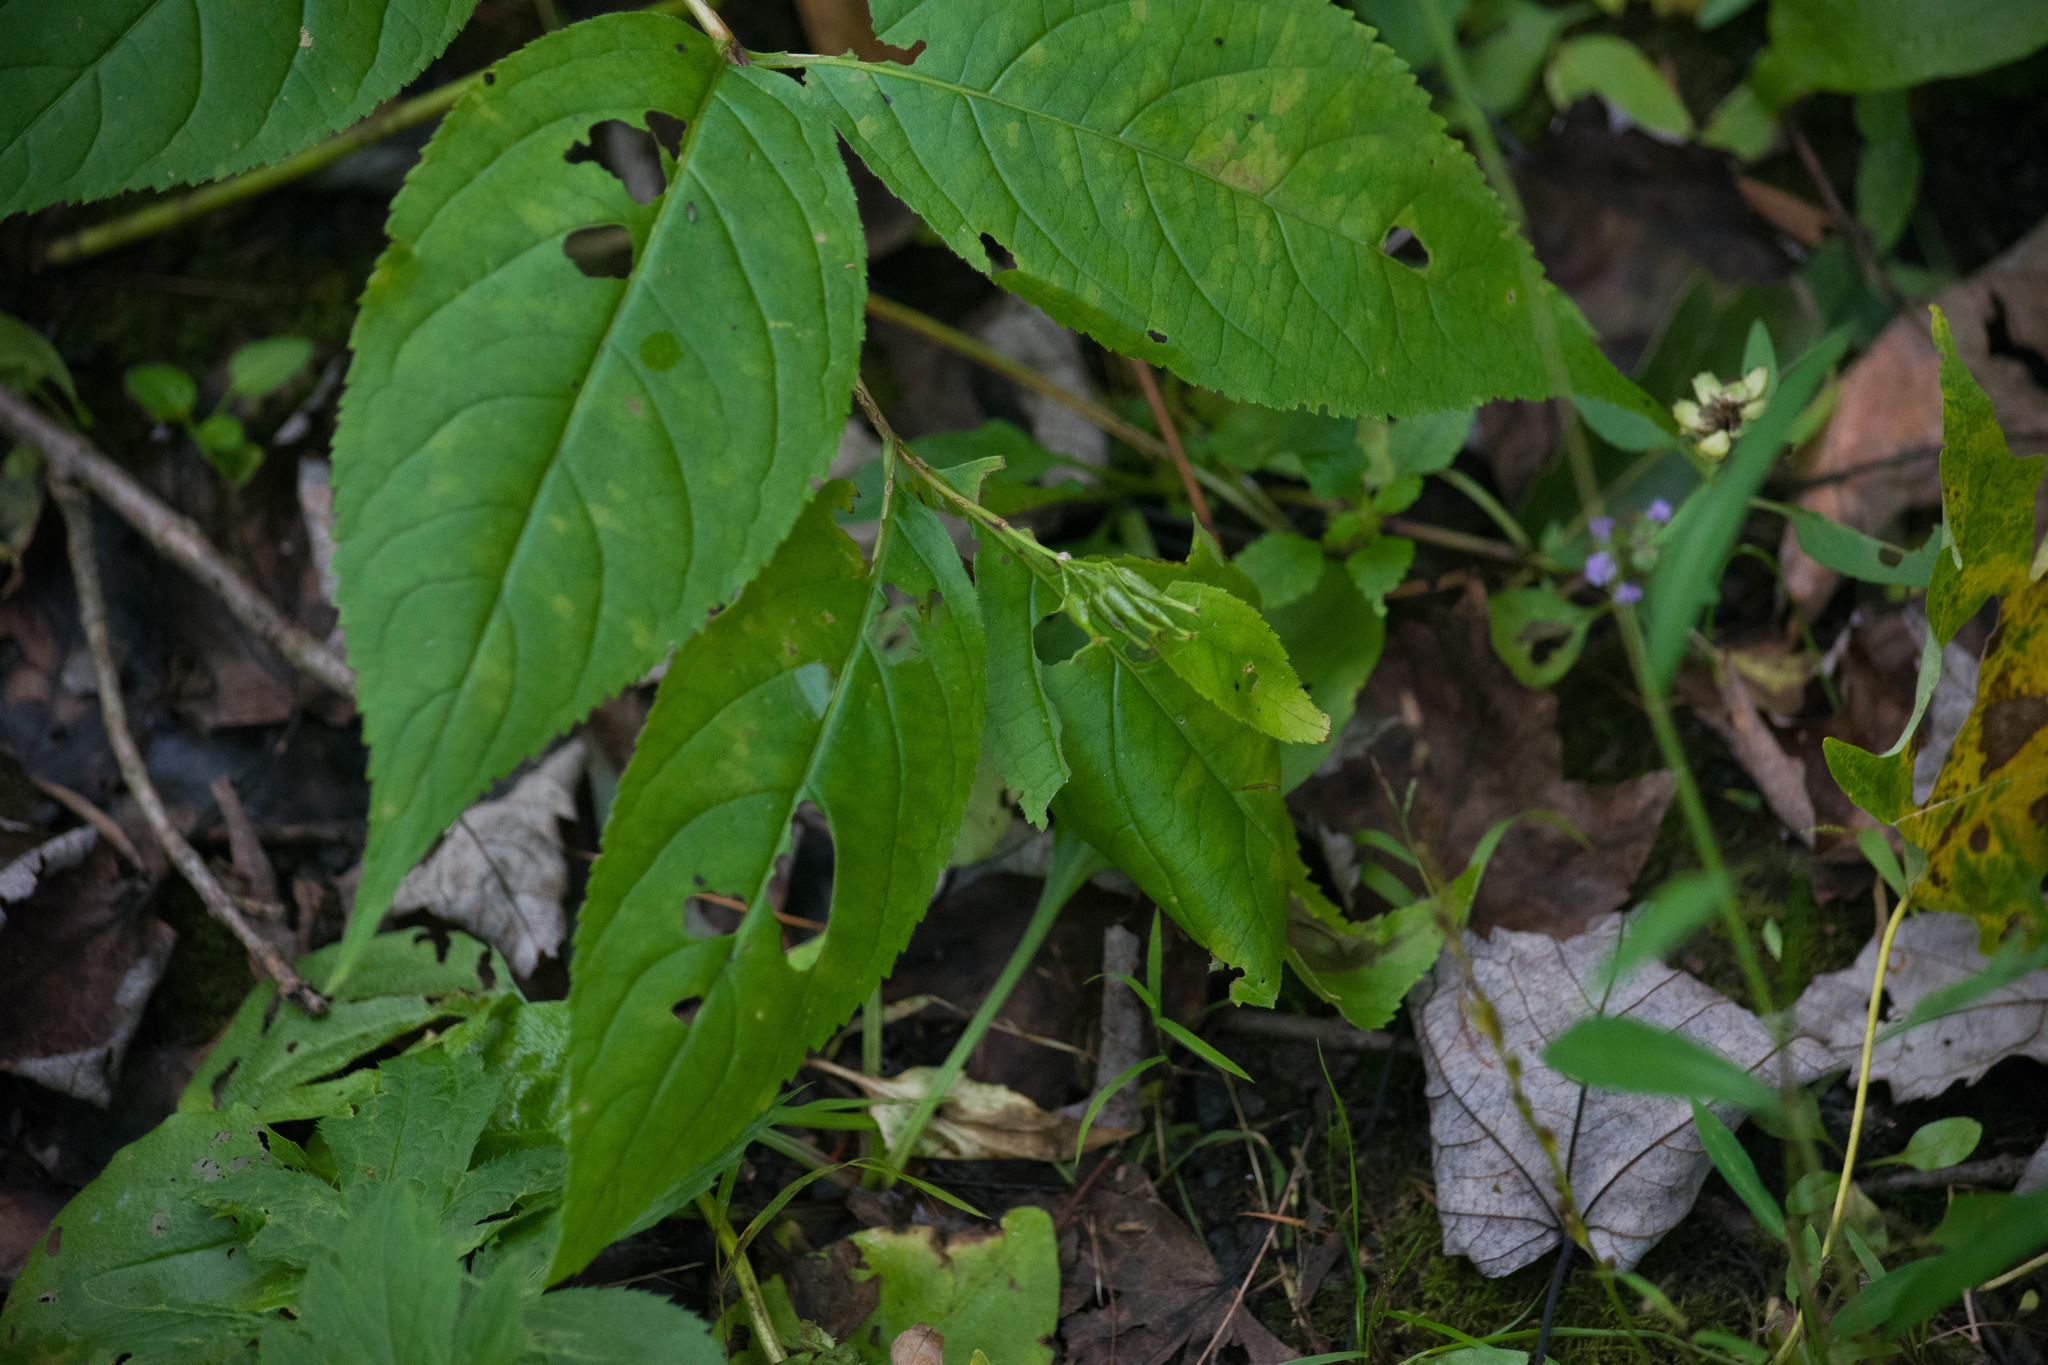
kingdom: Plantae
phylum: Tracheophyta
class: Magnoliopsida
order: Dipsacales
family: Caprifoliaceae
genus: Diervilla
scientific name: Diervilla lonicera
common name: Bush-honeysuckle
